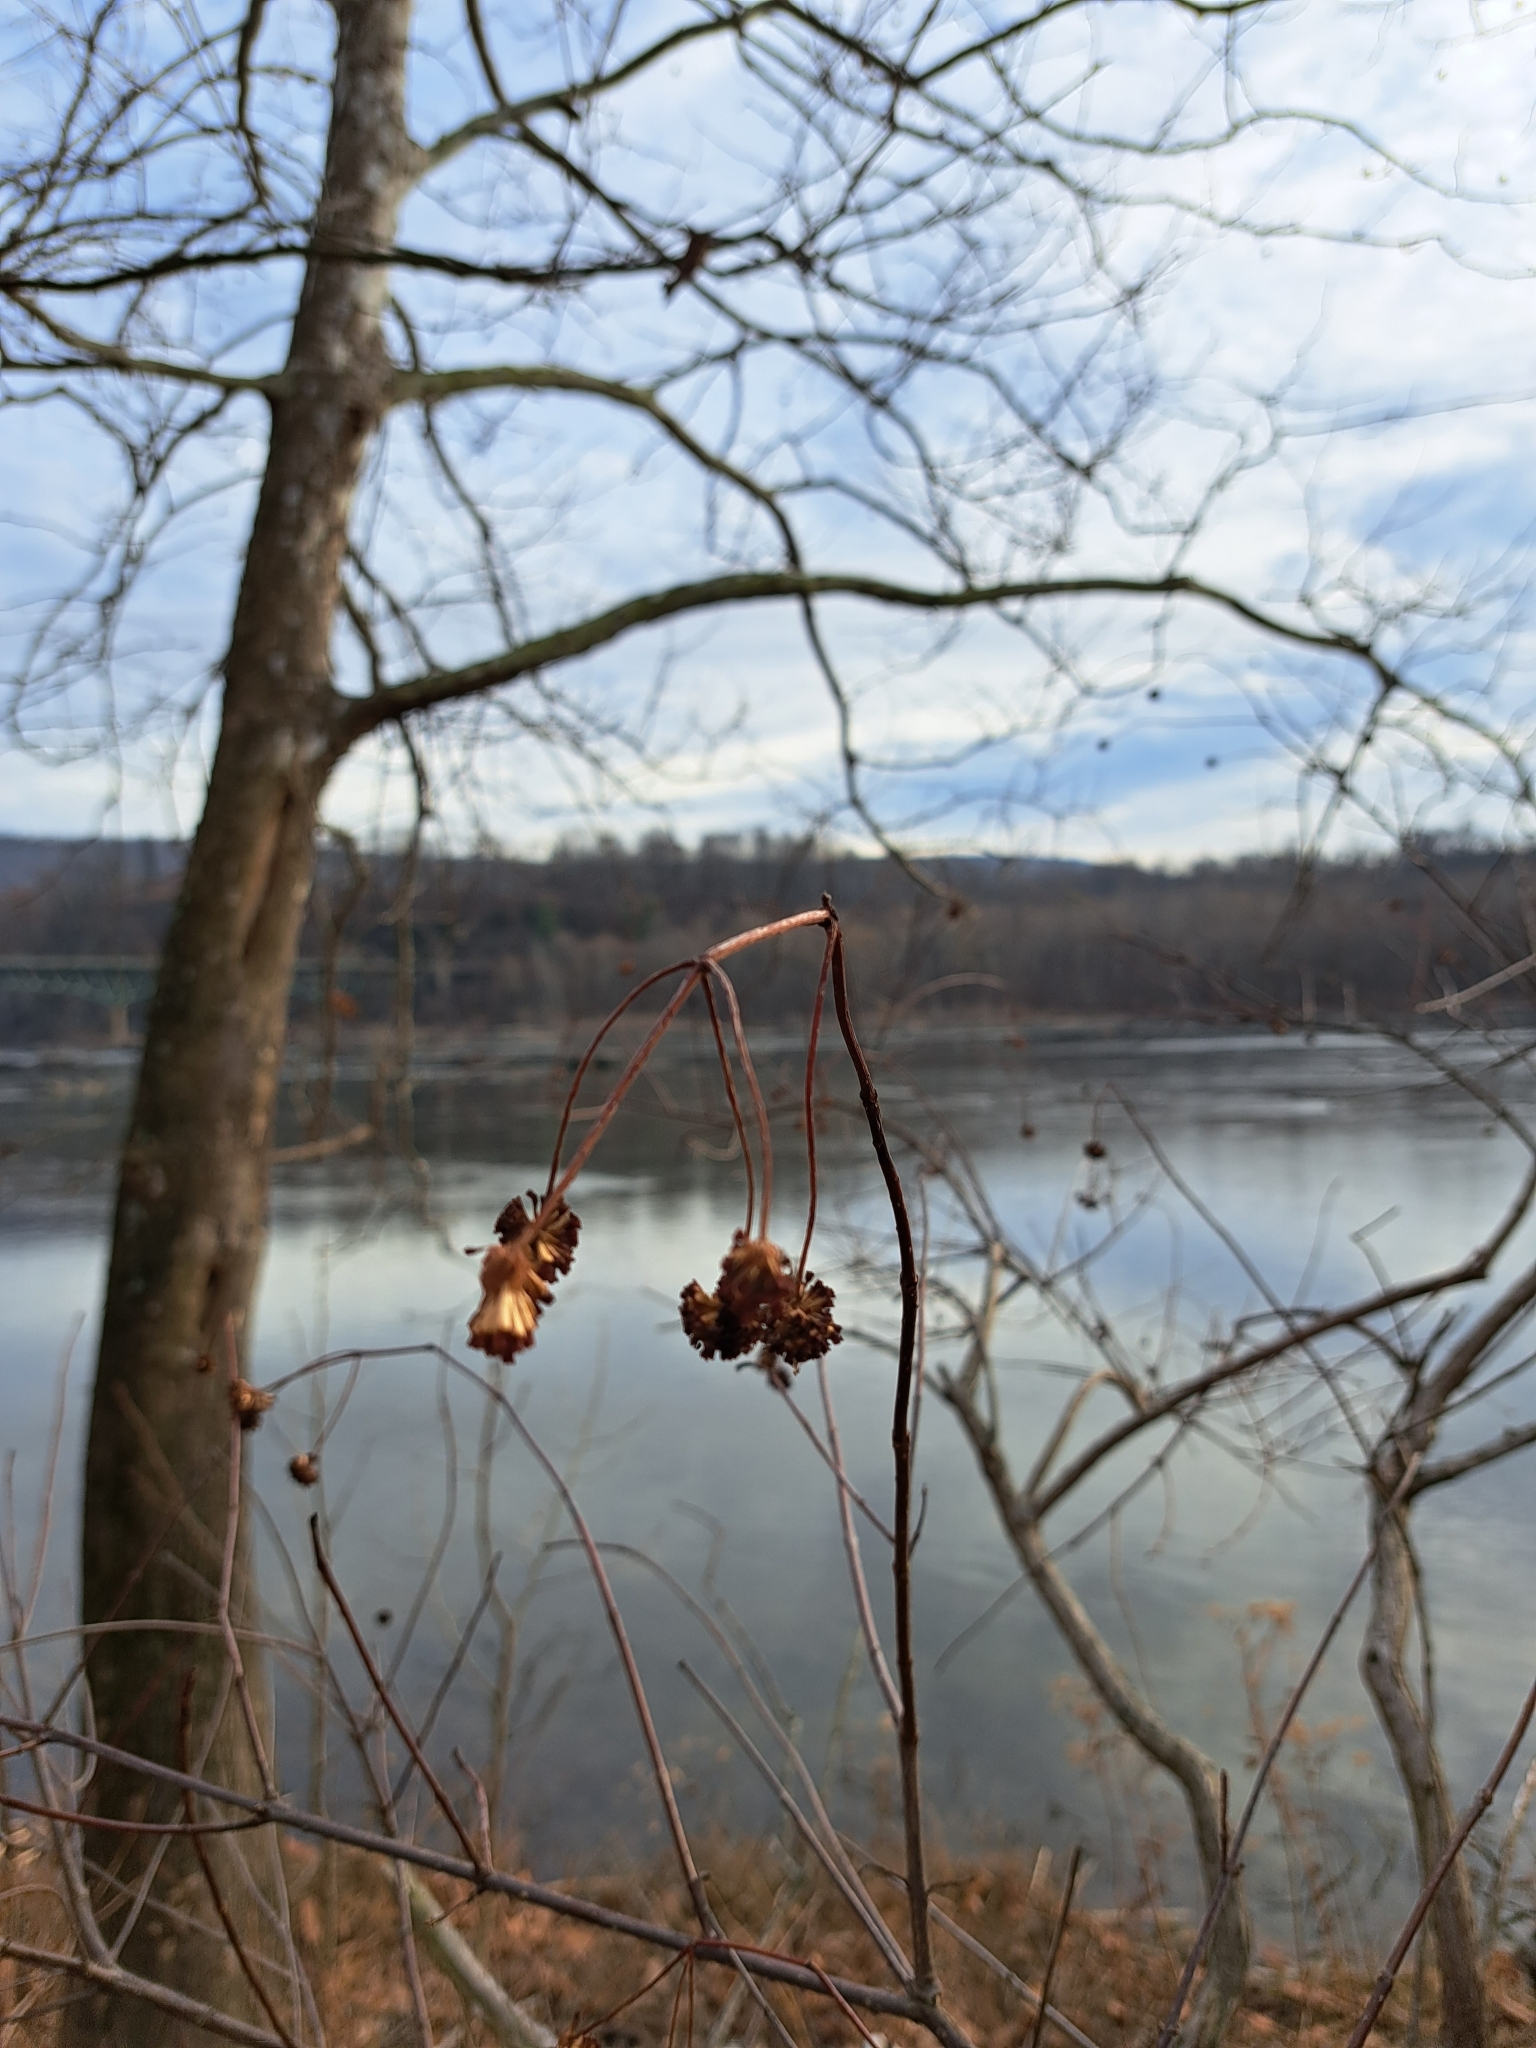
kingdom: Plantae
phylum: Tracheophyta
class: Magnoliopsida
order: Gentianales
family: Rubiaceae
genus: Cephalanthus
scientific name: Cephalanthus occidentalis
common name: Button-willow
